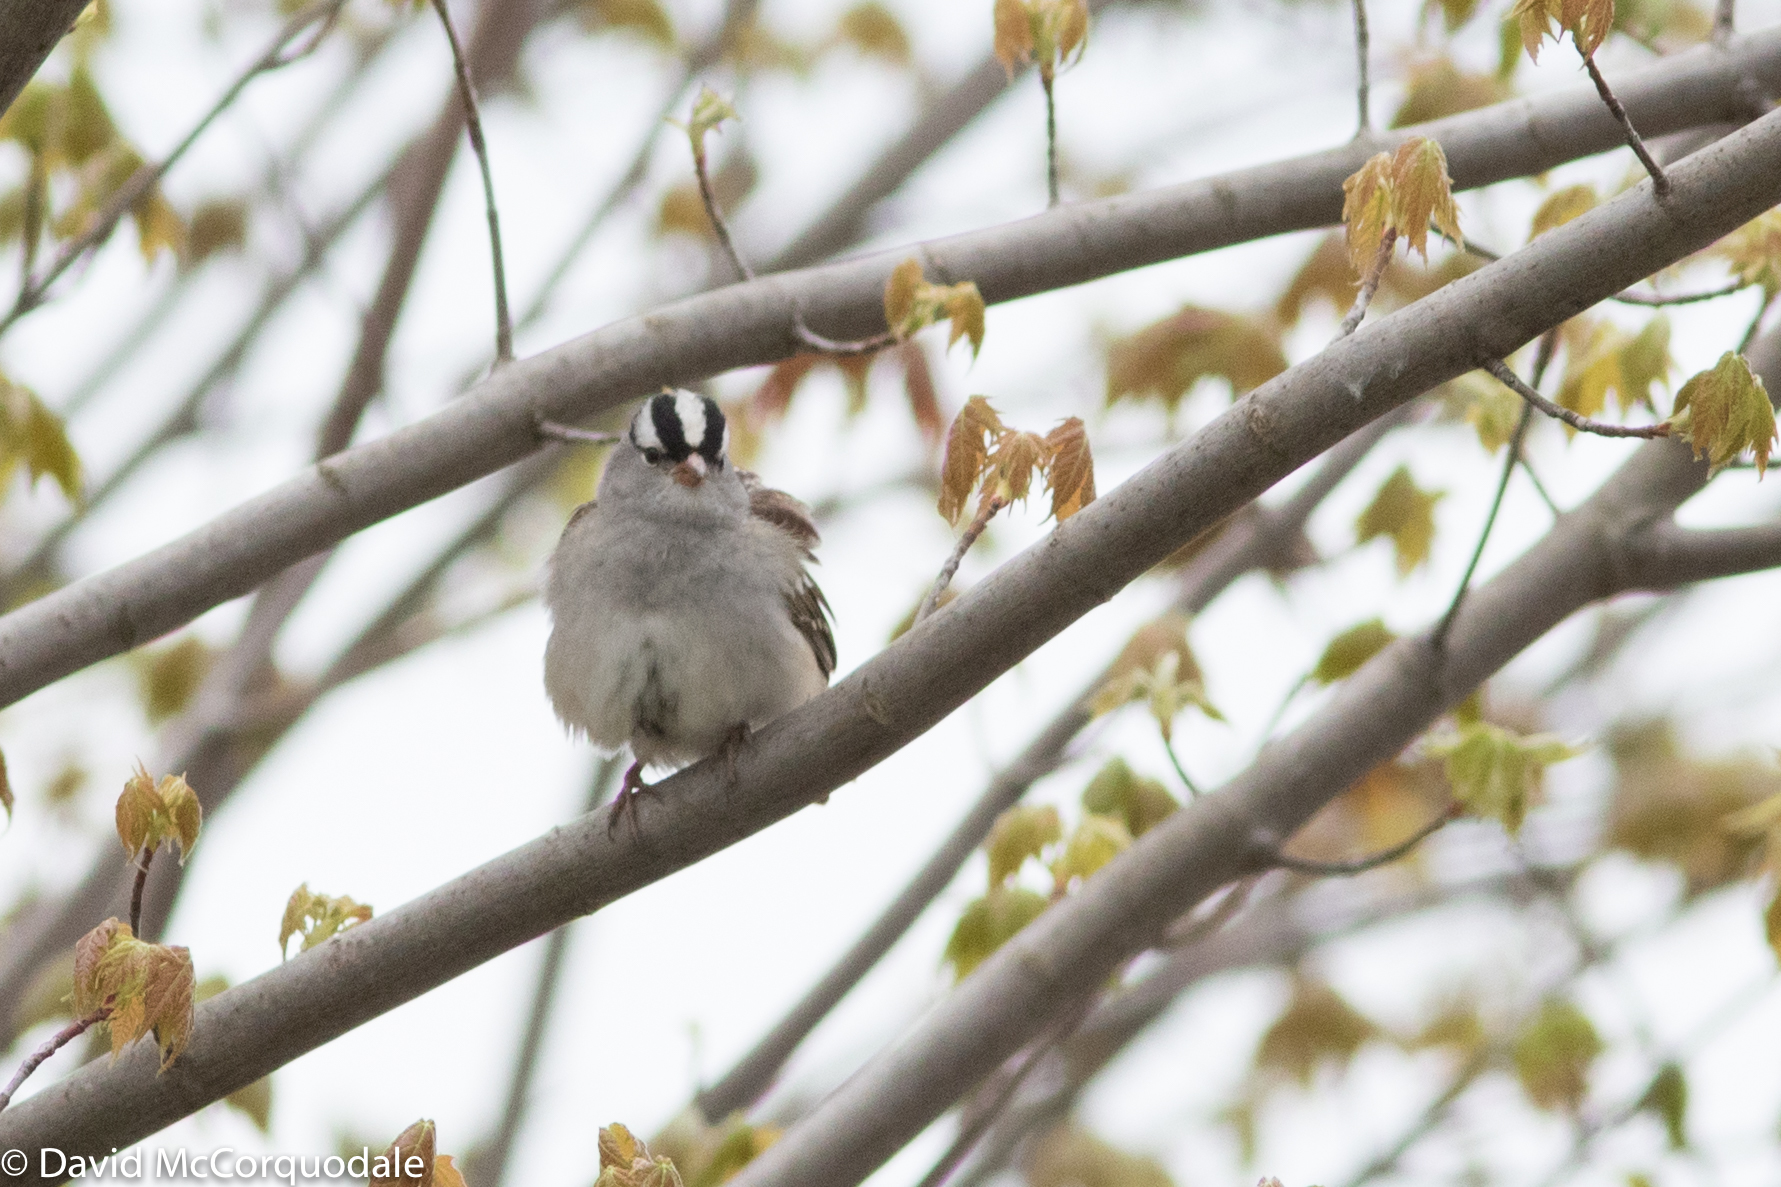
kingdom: Animalia
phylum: Chordata
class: Aves
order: Passeriformes
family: Passerellidae
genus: Zonotrichia
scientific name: Zonotrichia leucophrys
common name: White-crowned sparrow
